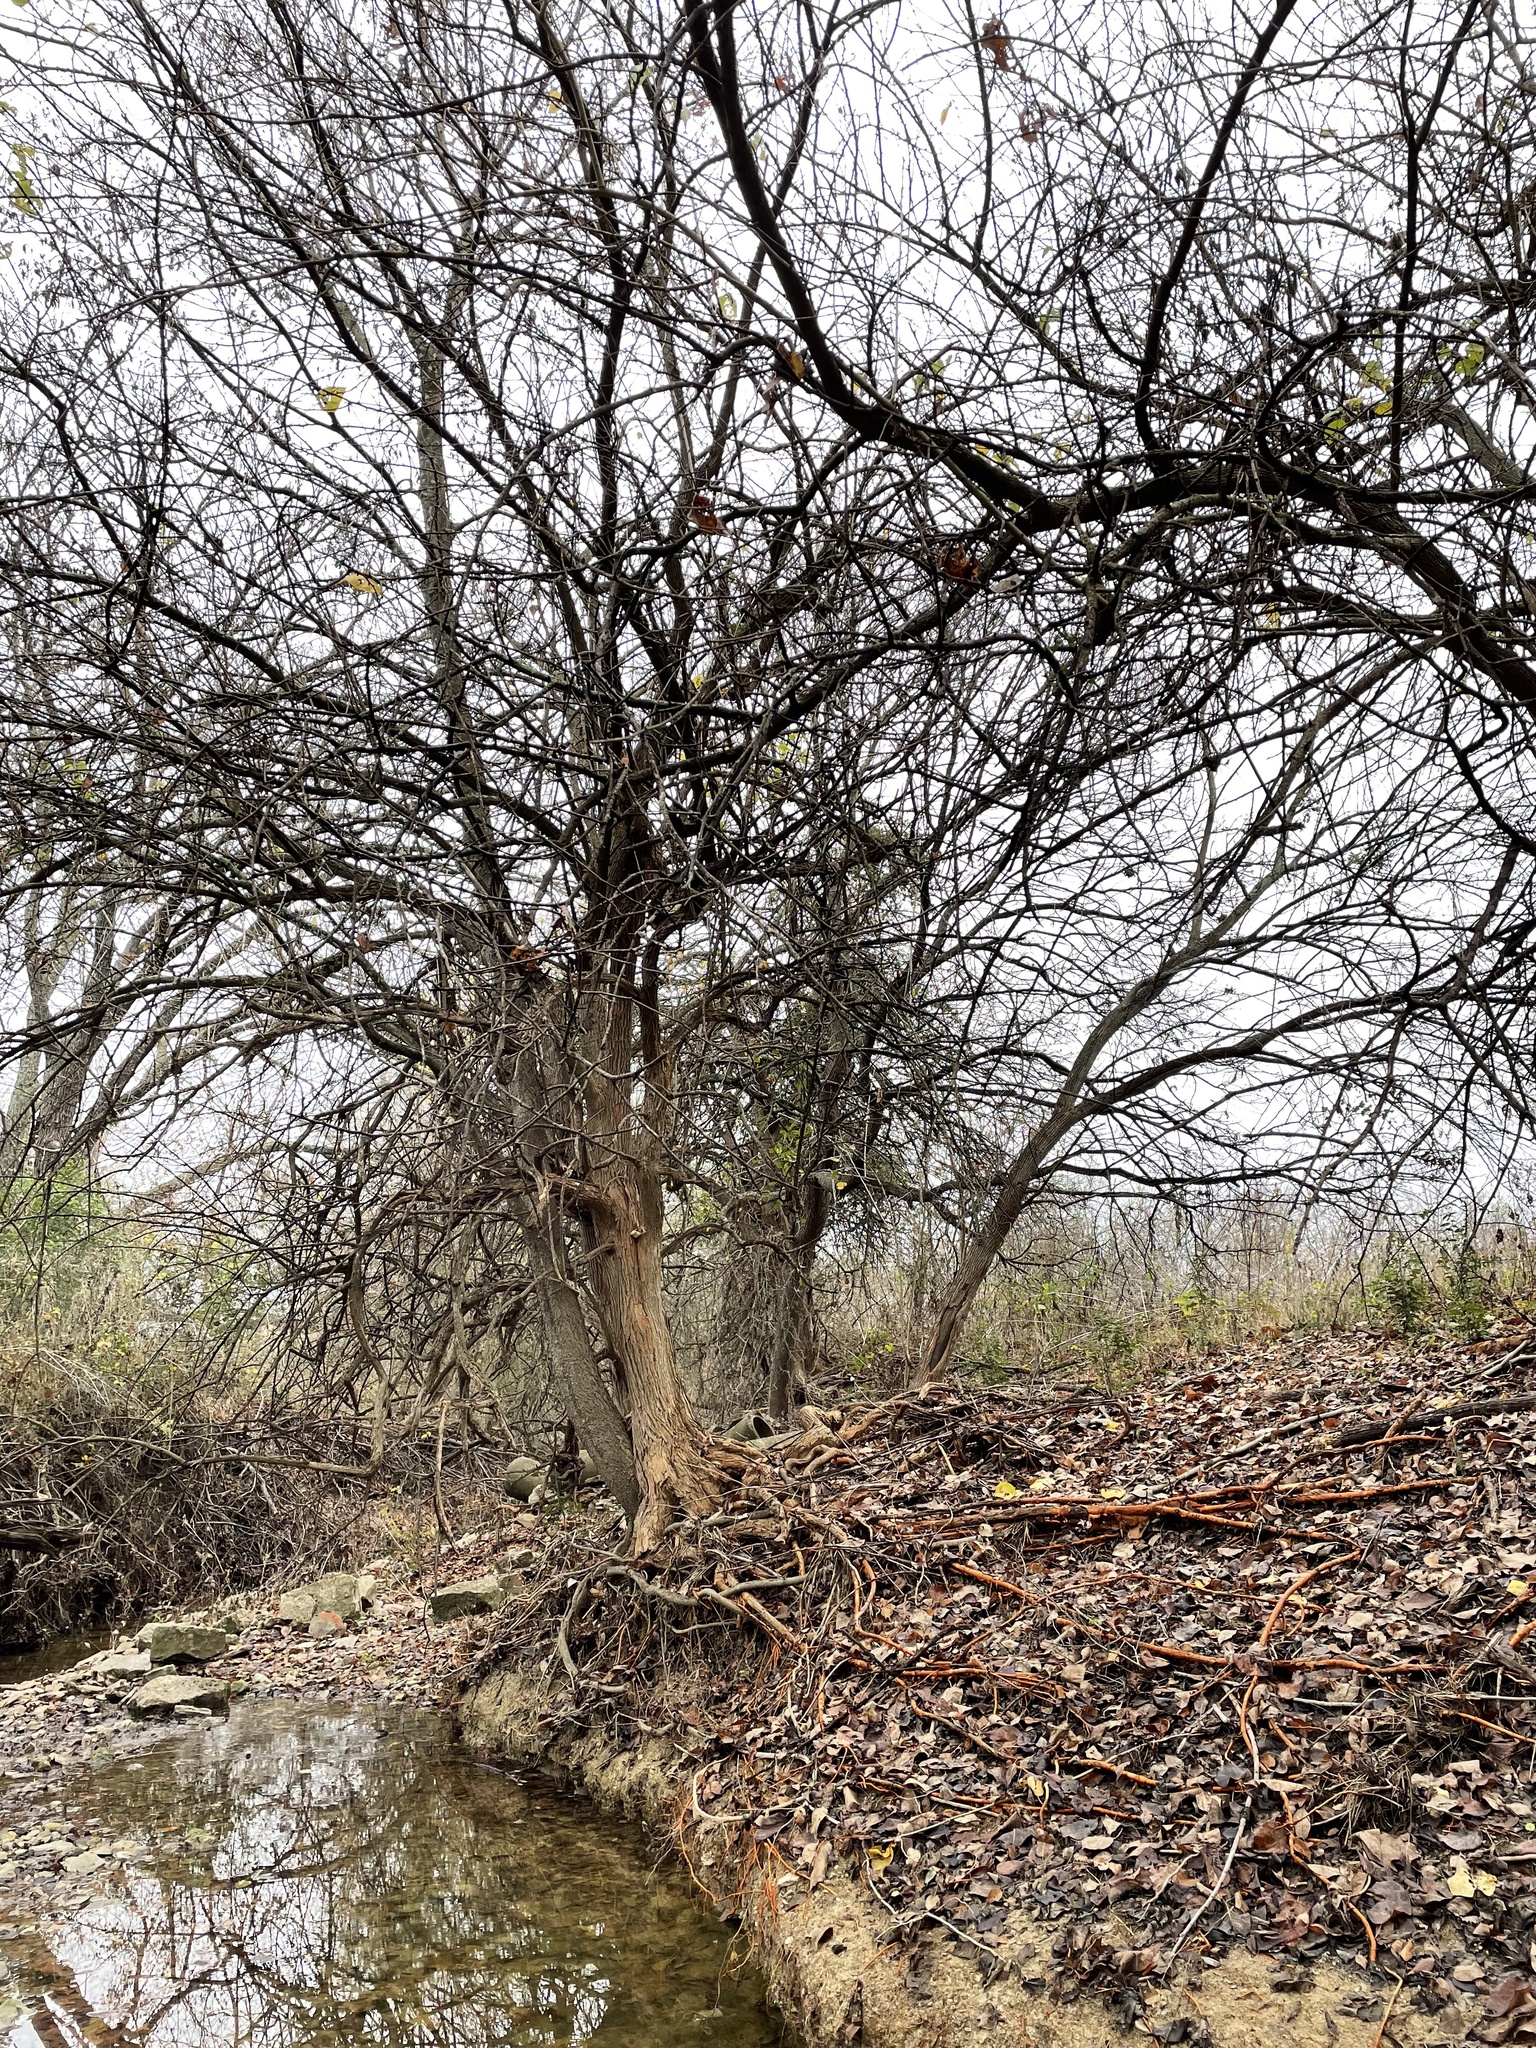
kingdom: Plantae
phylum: Tracheophyta
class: Magnoliopsida
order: Rosales
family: Moraceae
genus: Maclura
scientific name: Maclura pomifera
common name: Osage-orange
